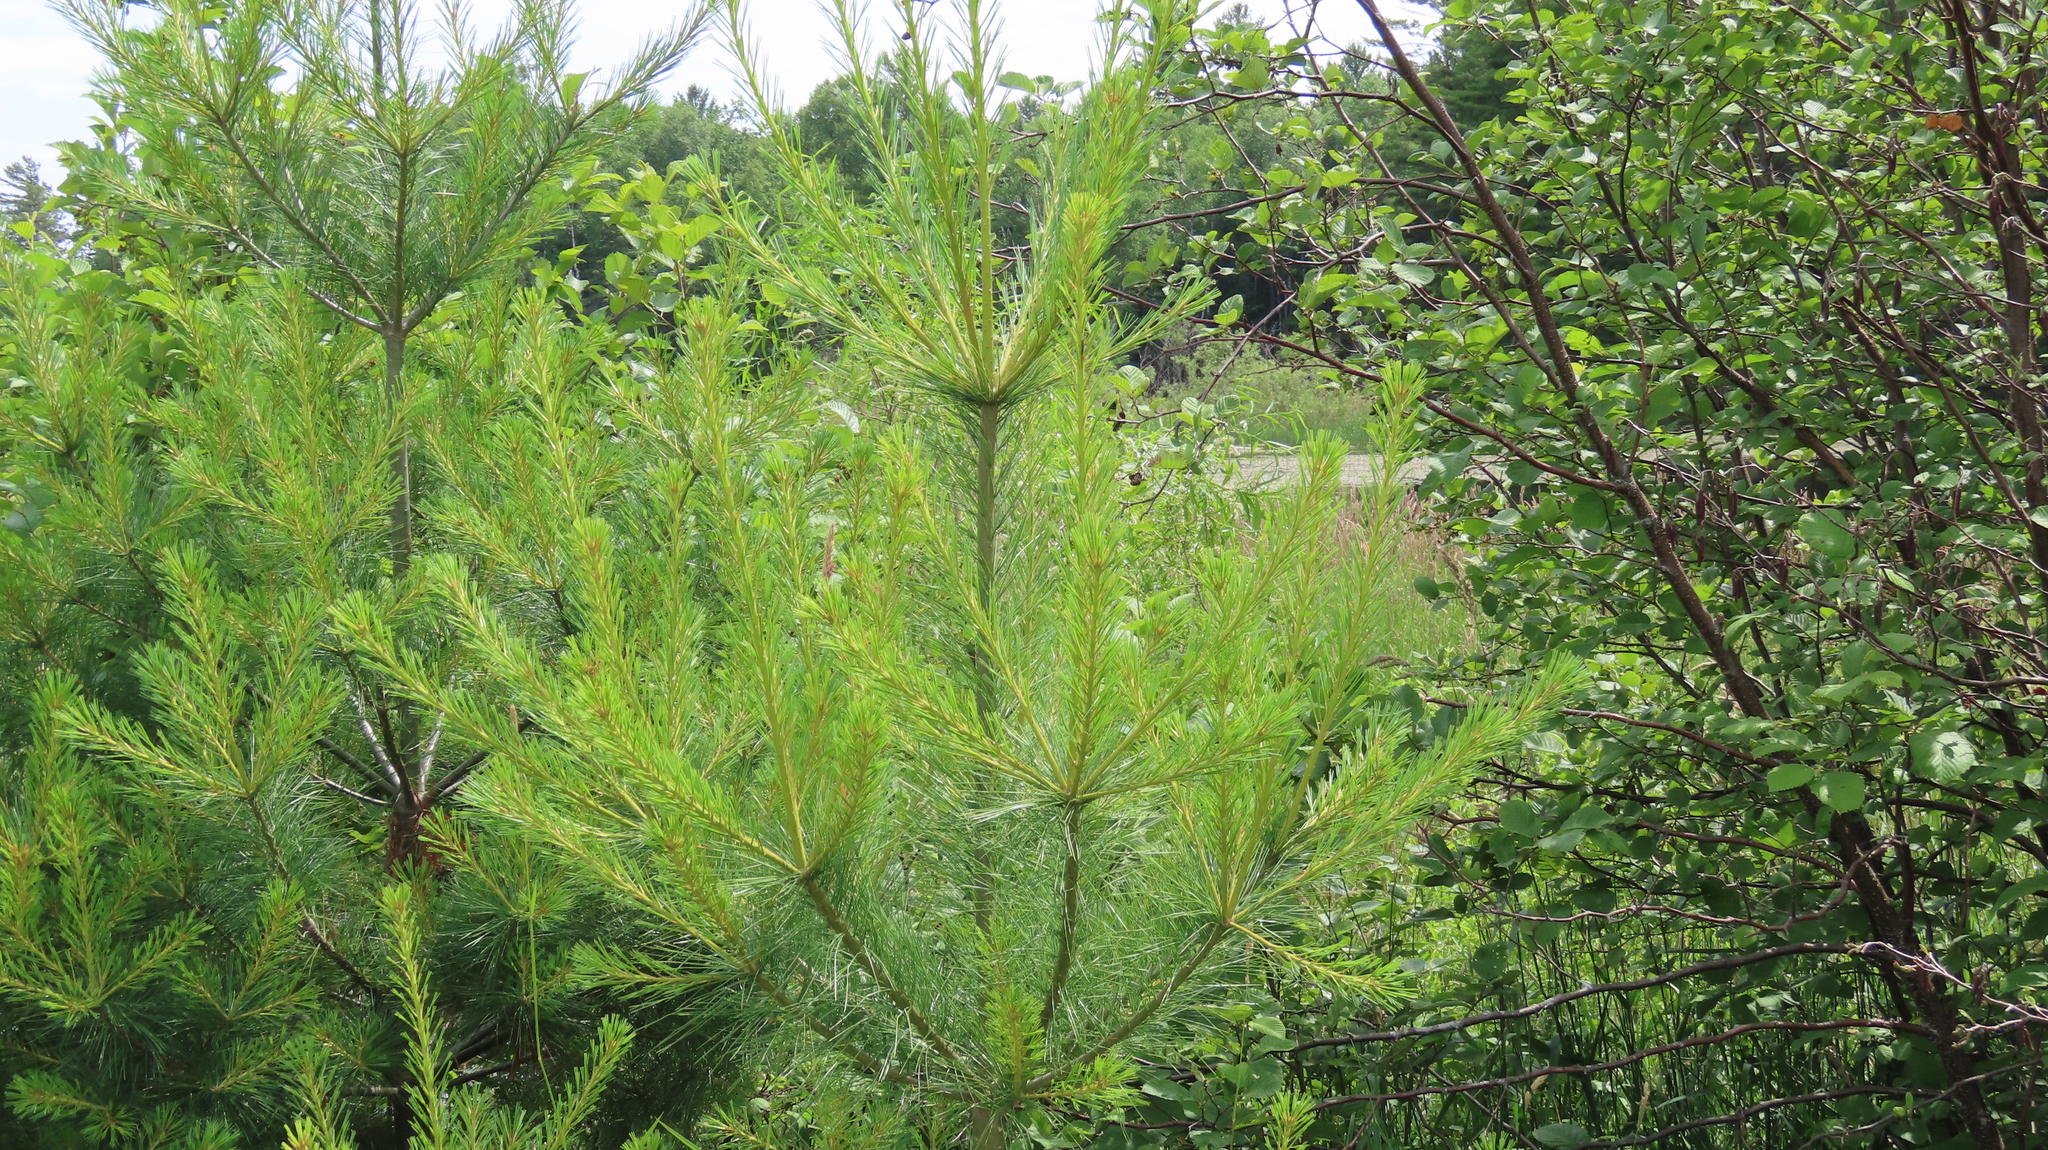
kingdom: Plantae
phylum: Tracheophyta
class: Pinopsida
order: Pinales
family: Pinaceae
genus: Pinus
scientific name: Pinus strobus
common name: Weymouth pine
